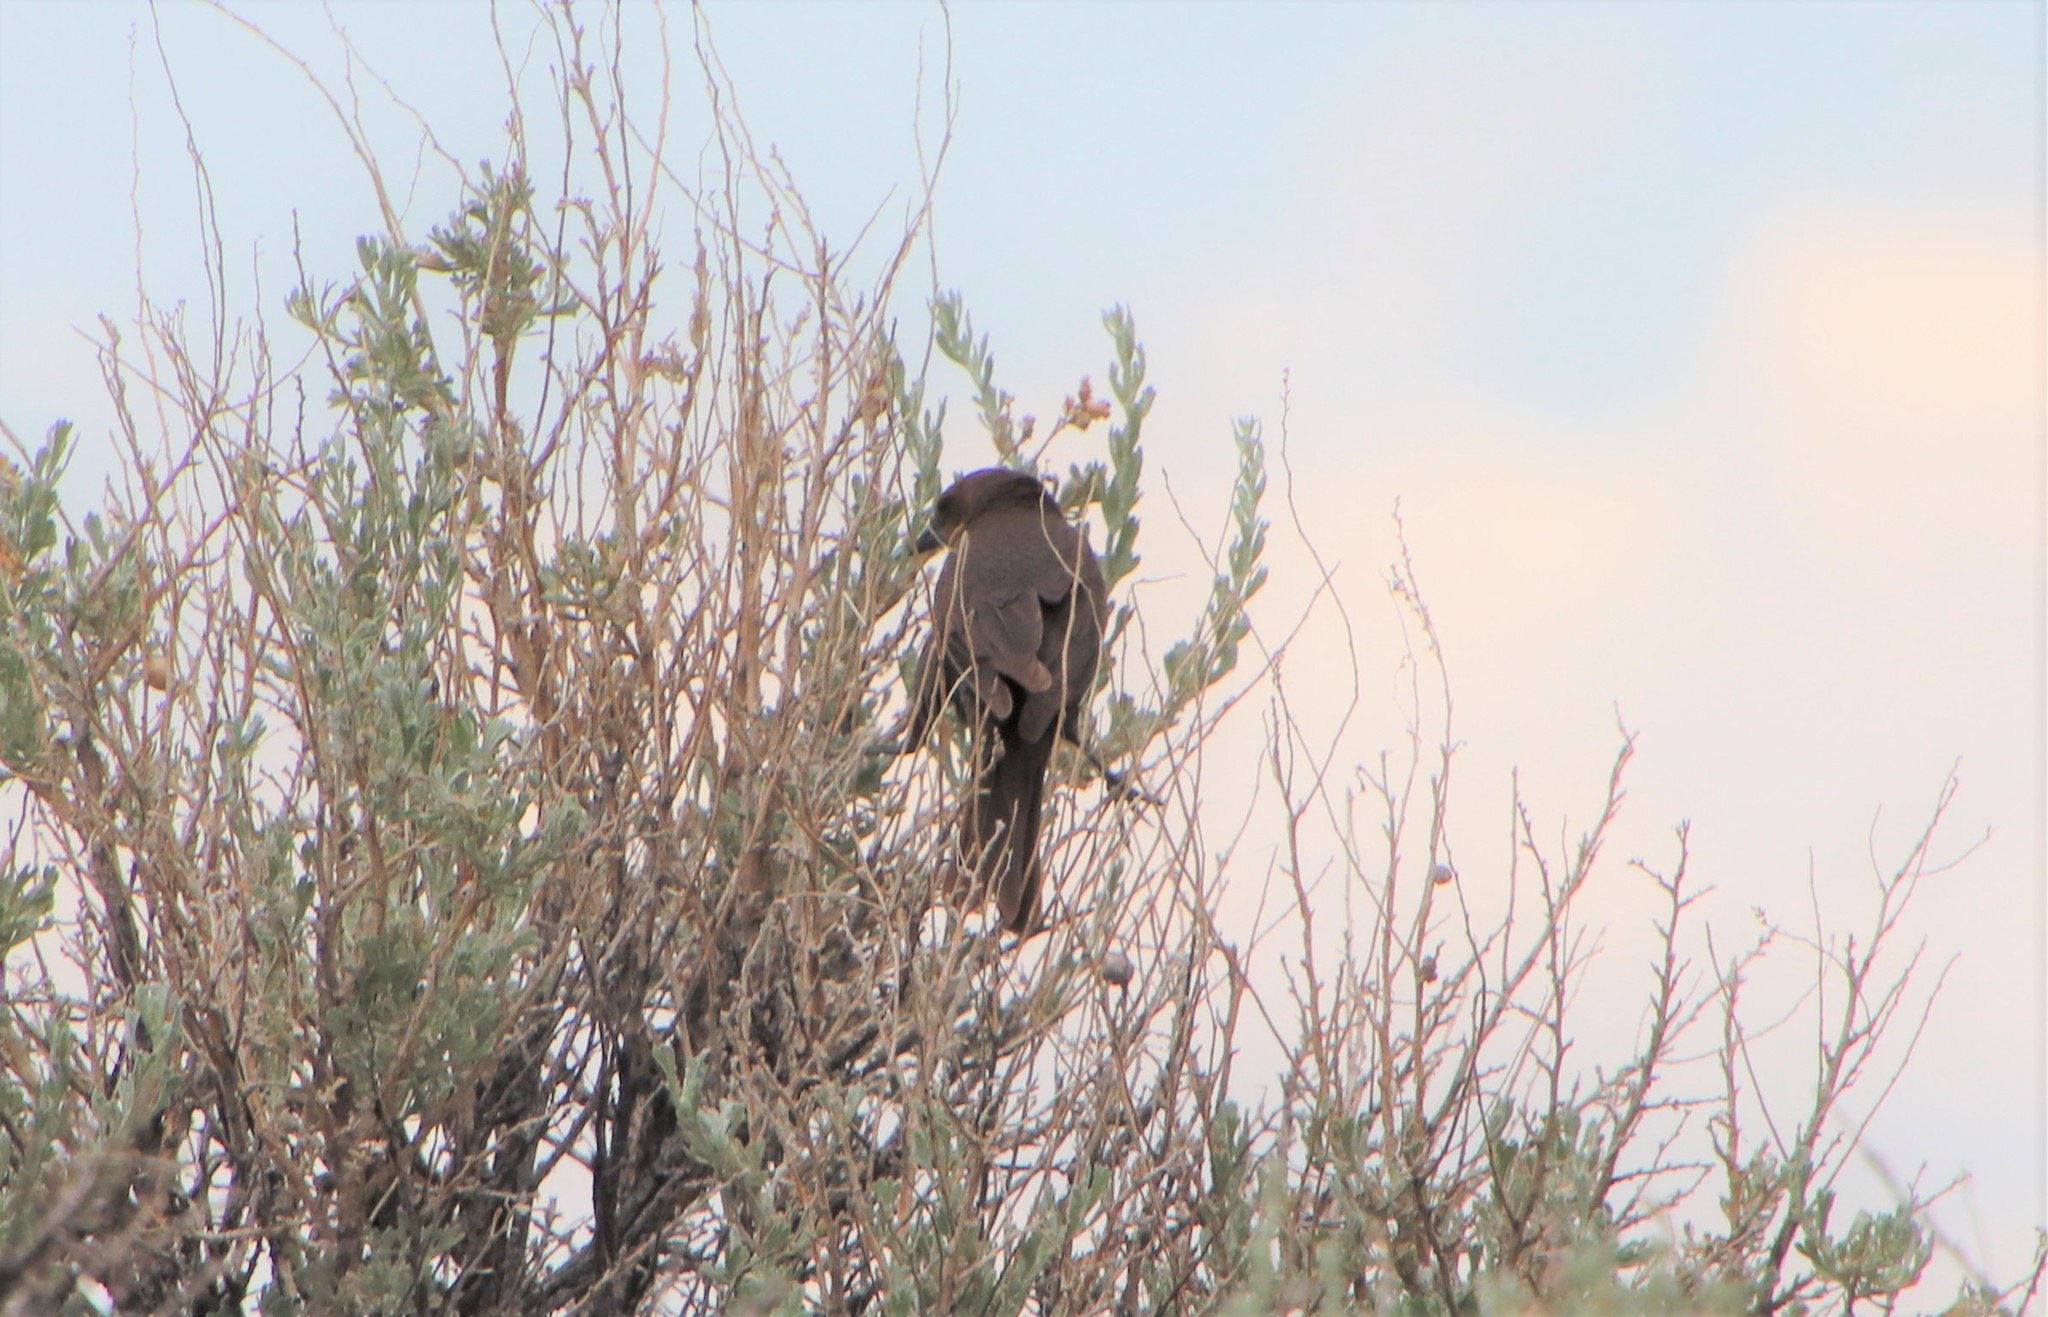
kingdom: Animalia
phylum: Chordata
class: Aves
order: Passeriformes
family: Icteridae
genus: Xanthocephalus
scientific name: Xanthocephalus xanthocephalus
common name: Yellow-headed blackbird
